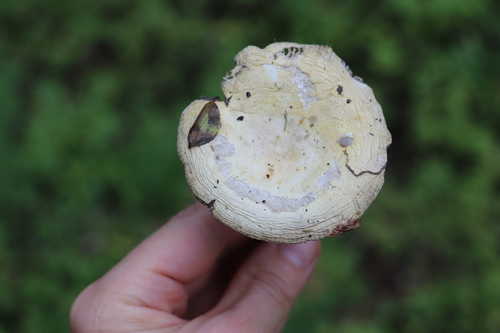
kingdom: Fungi
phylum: Basidiomycota
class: Agaricomycetes
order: Russulales
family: Russulaceae
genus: Russula
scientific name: Russula decolorans
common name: Copper brittlegill
